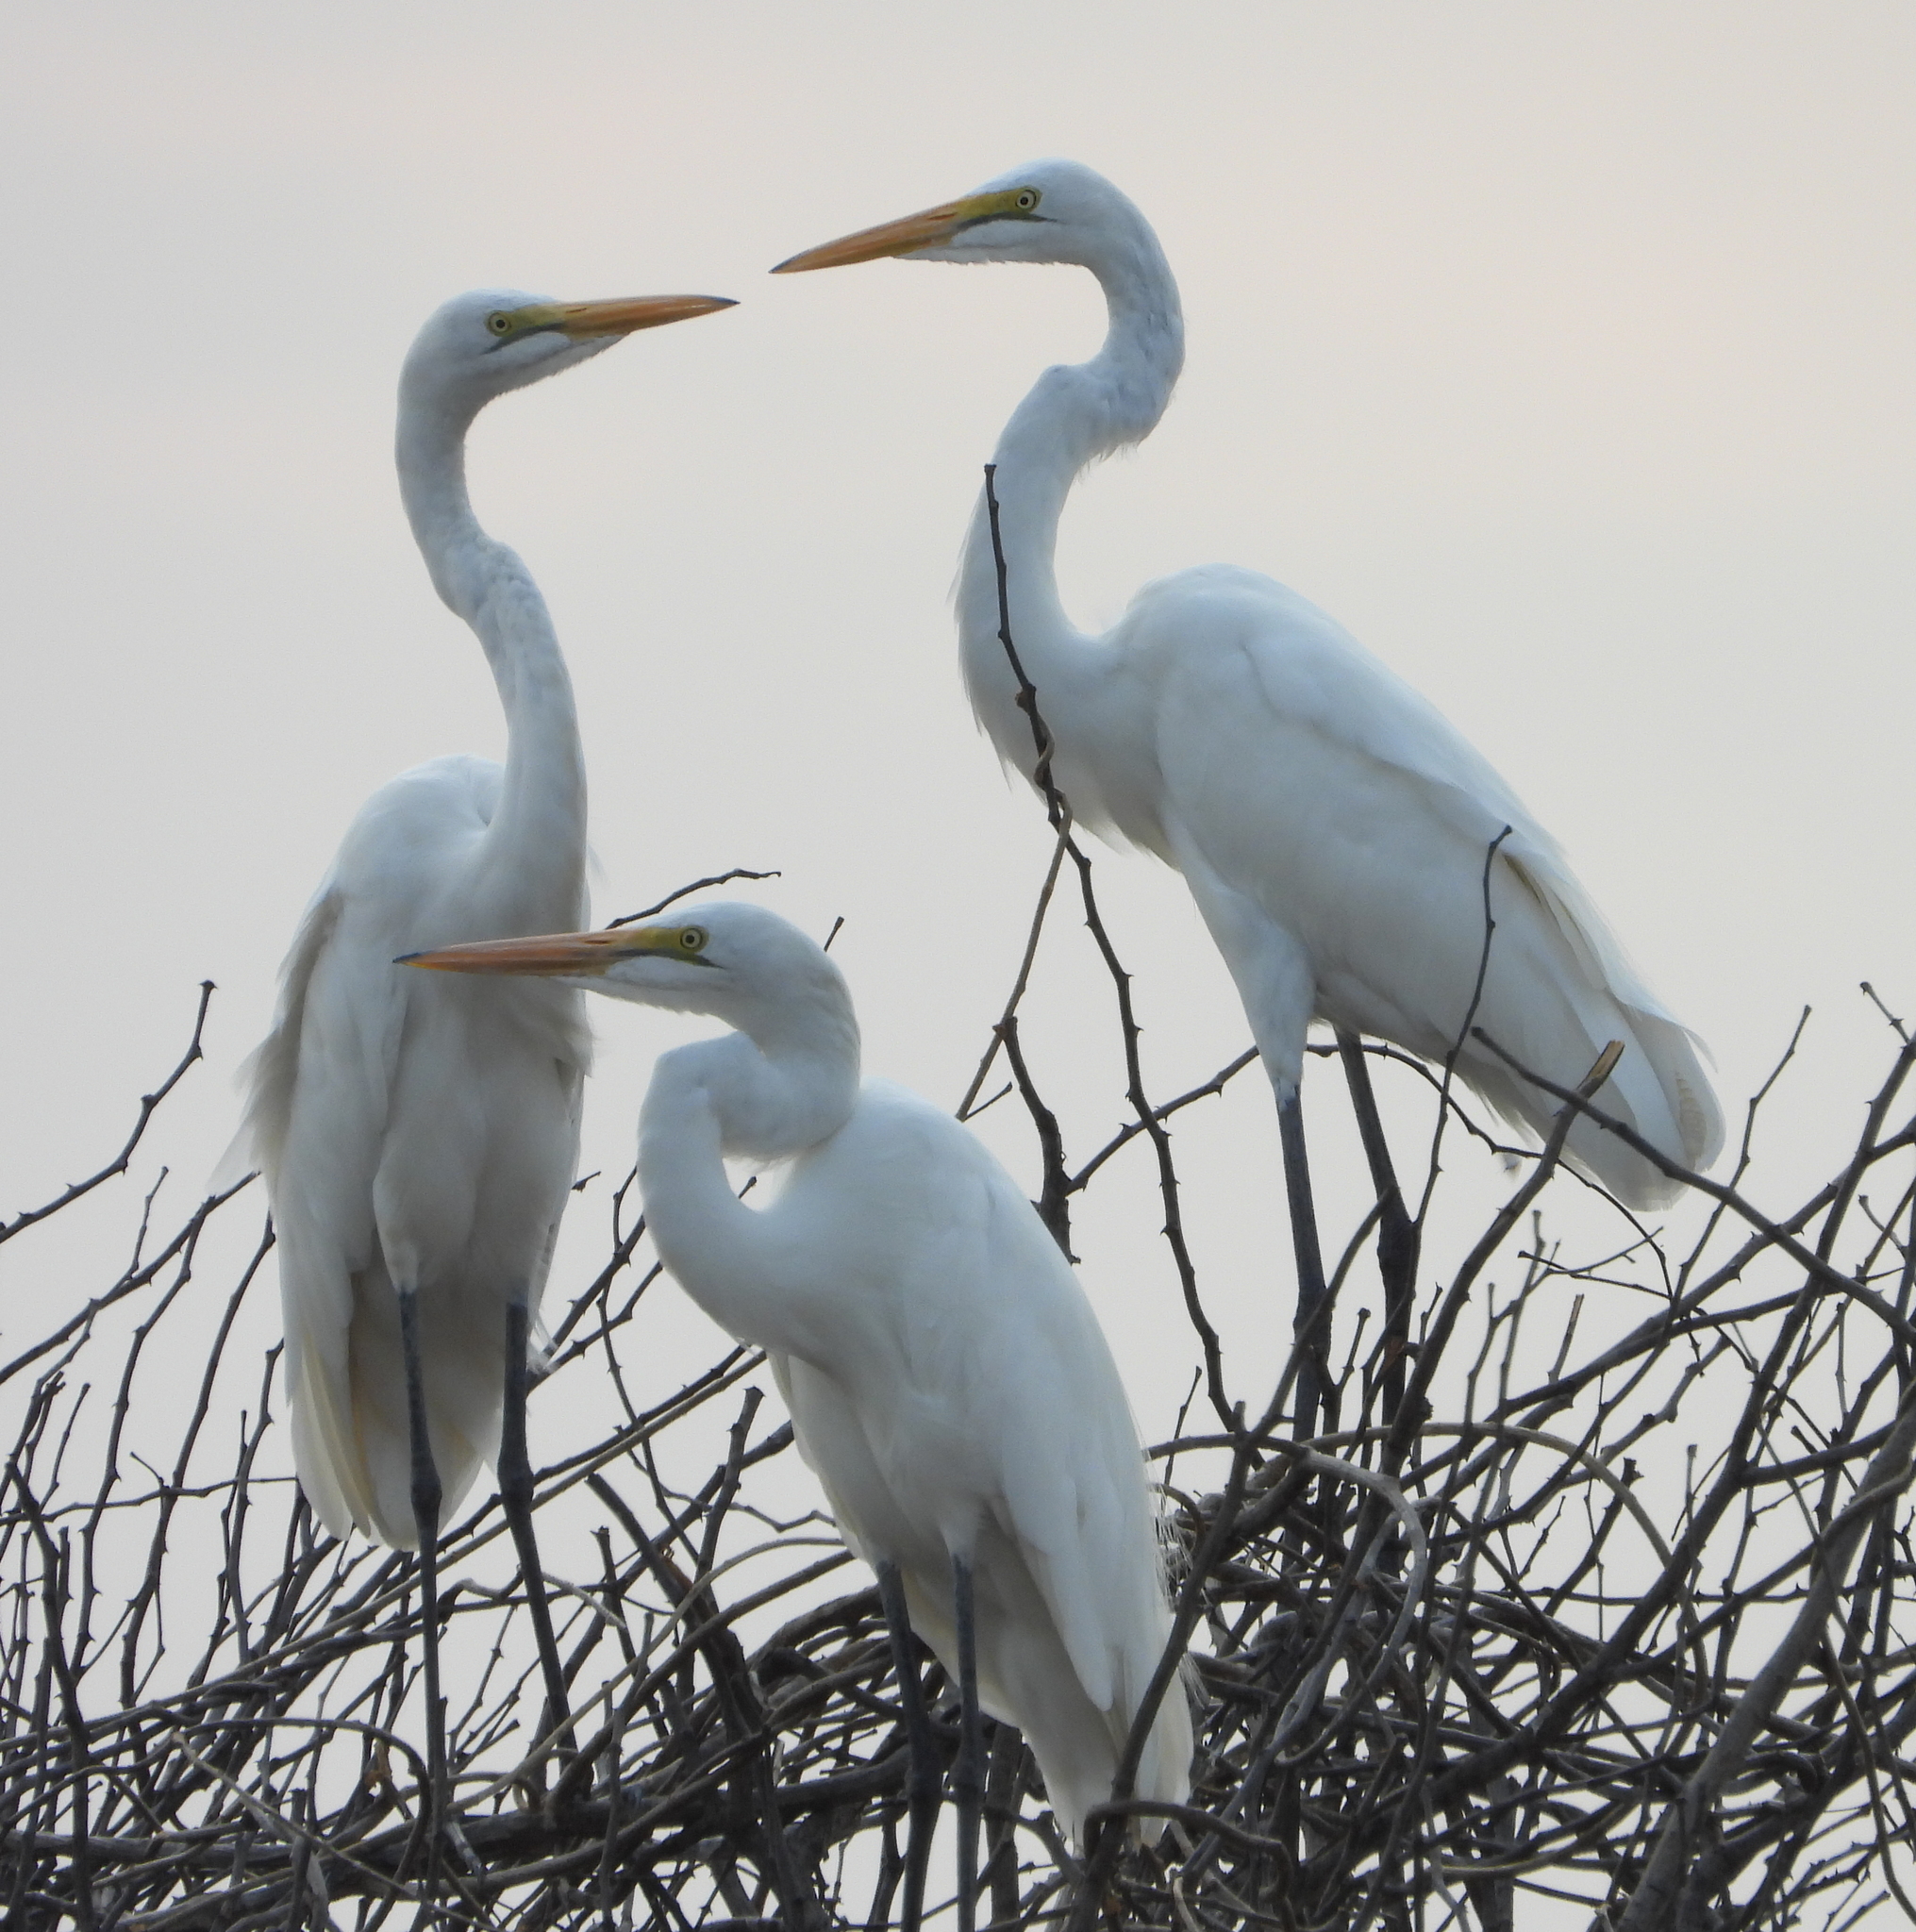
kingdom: Animalia
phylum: Chordata
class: Aves
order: Pelecaniformes
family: Ardeidae
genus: Ardea
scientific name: Ardea alba
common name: Great egret
